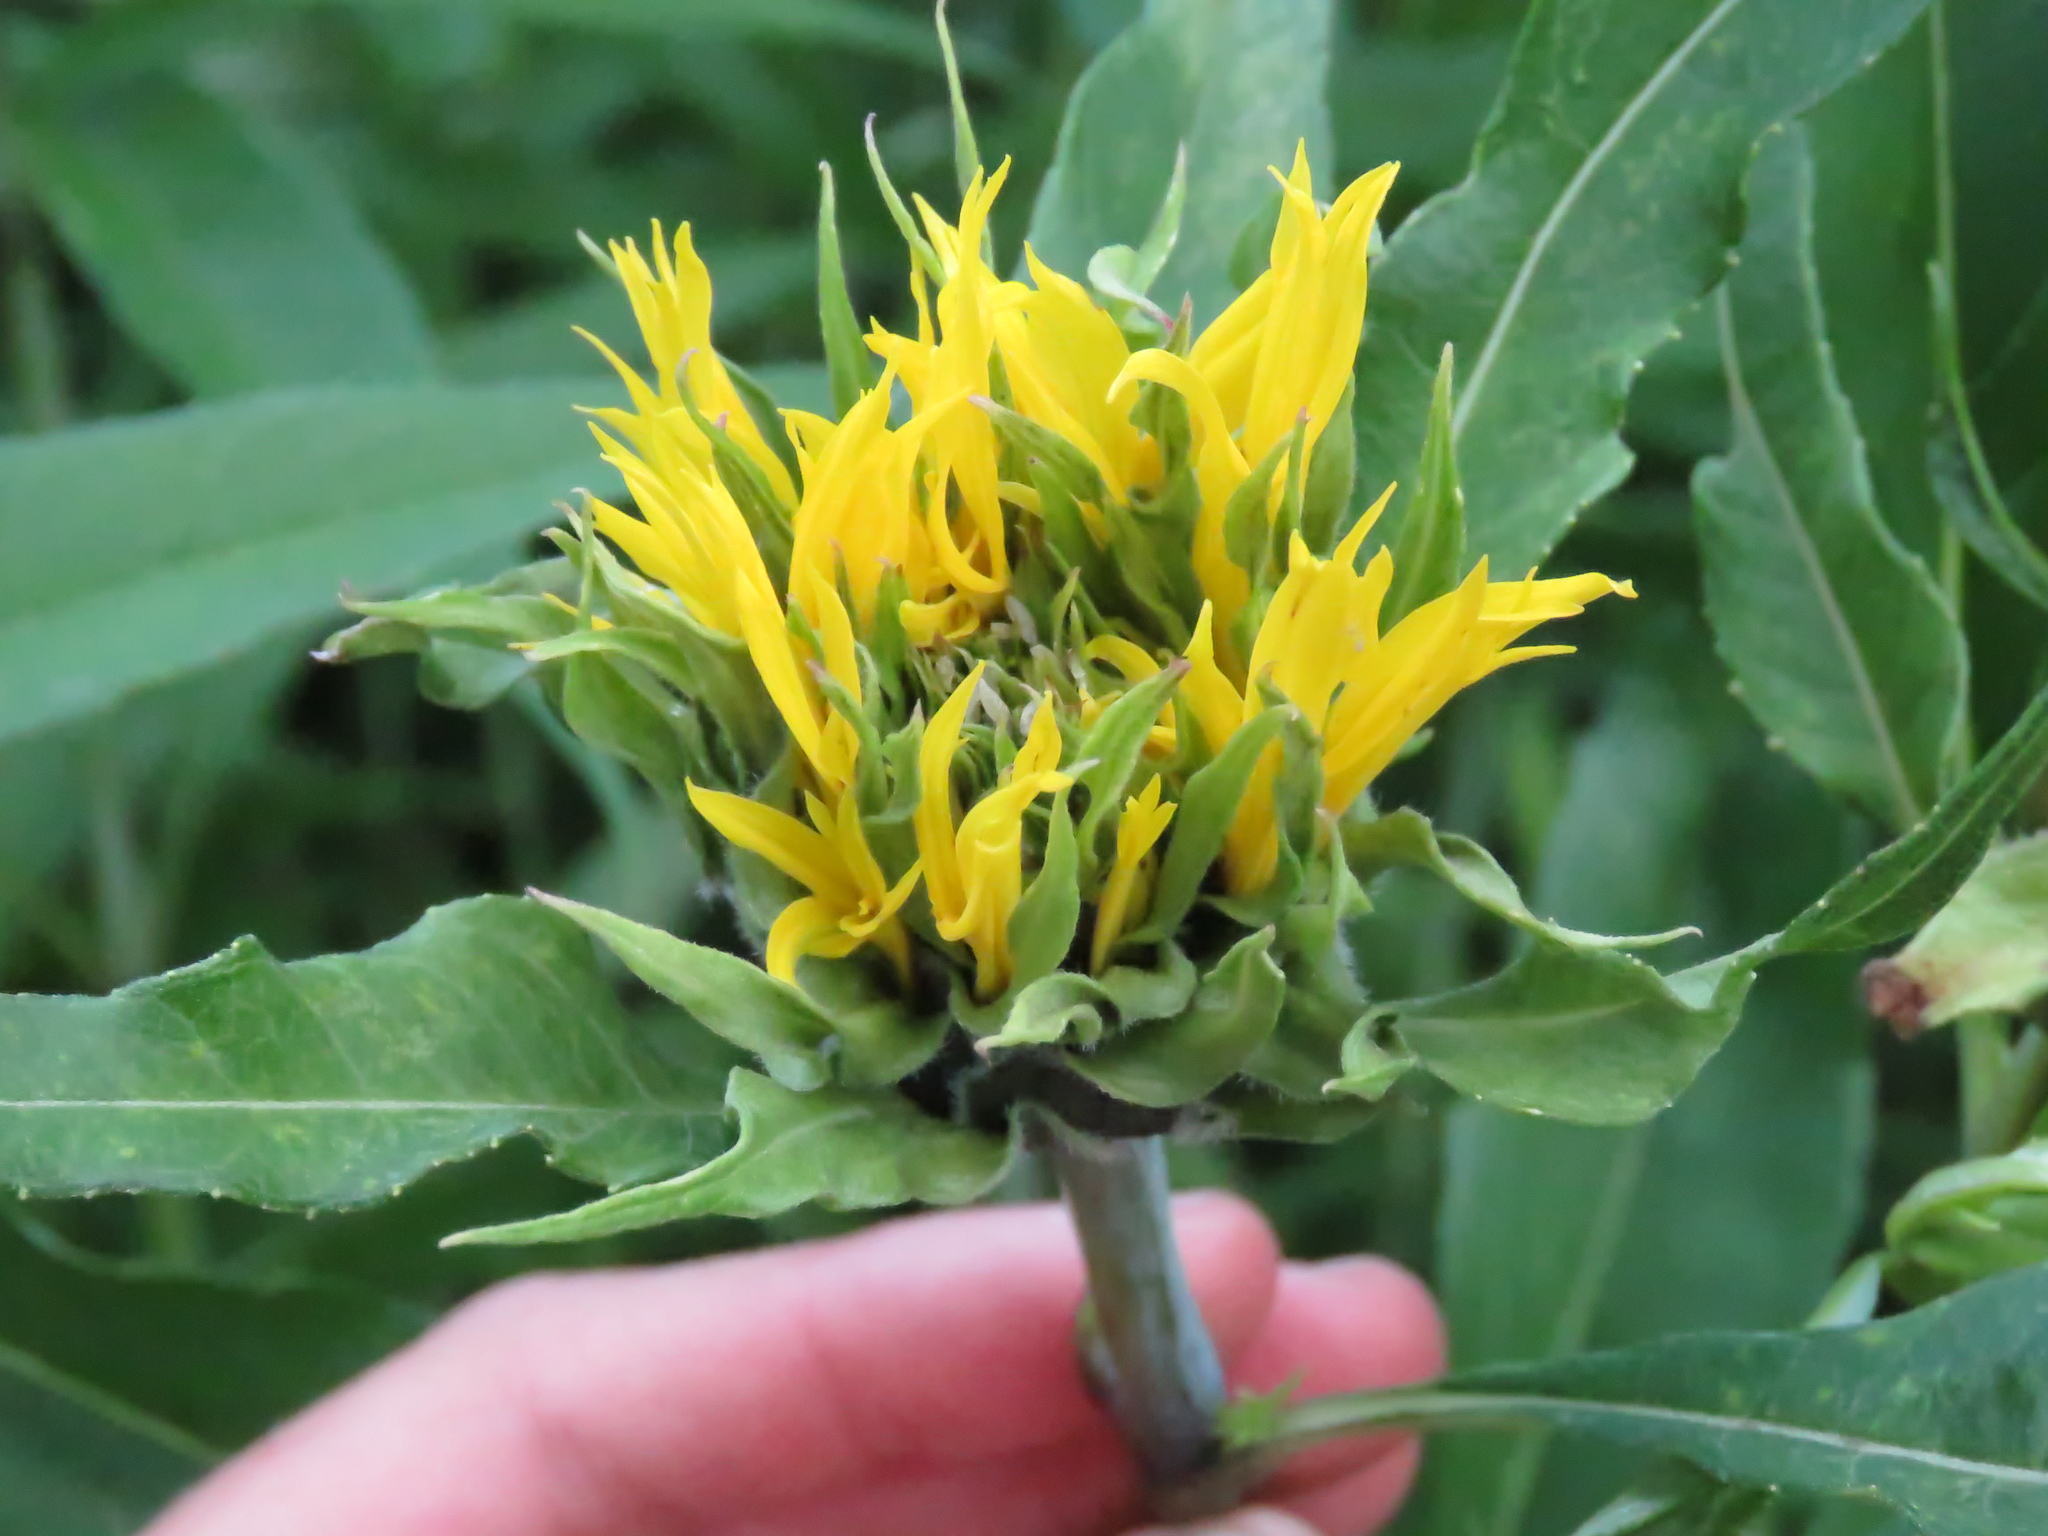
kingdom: Plantae
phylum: Tracheophyta
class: Magnoliopsida
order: Asterales
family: Asteraceae
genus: Helianthus
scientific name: Helianthus grosseserratus
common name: Sawtooth sunflower
